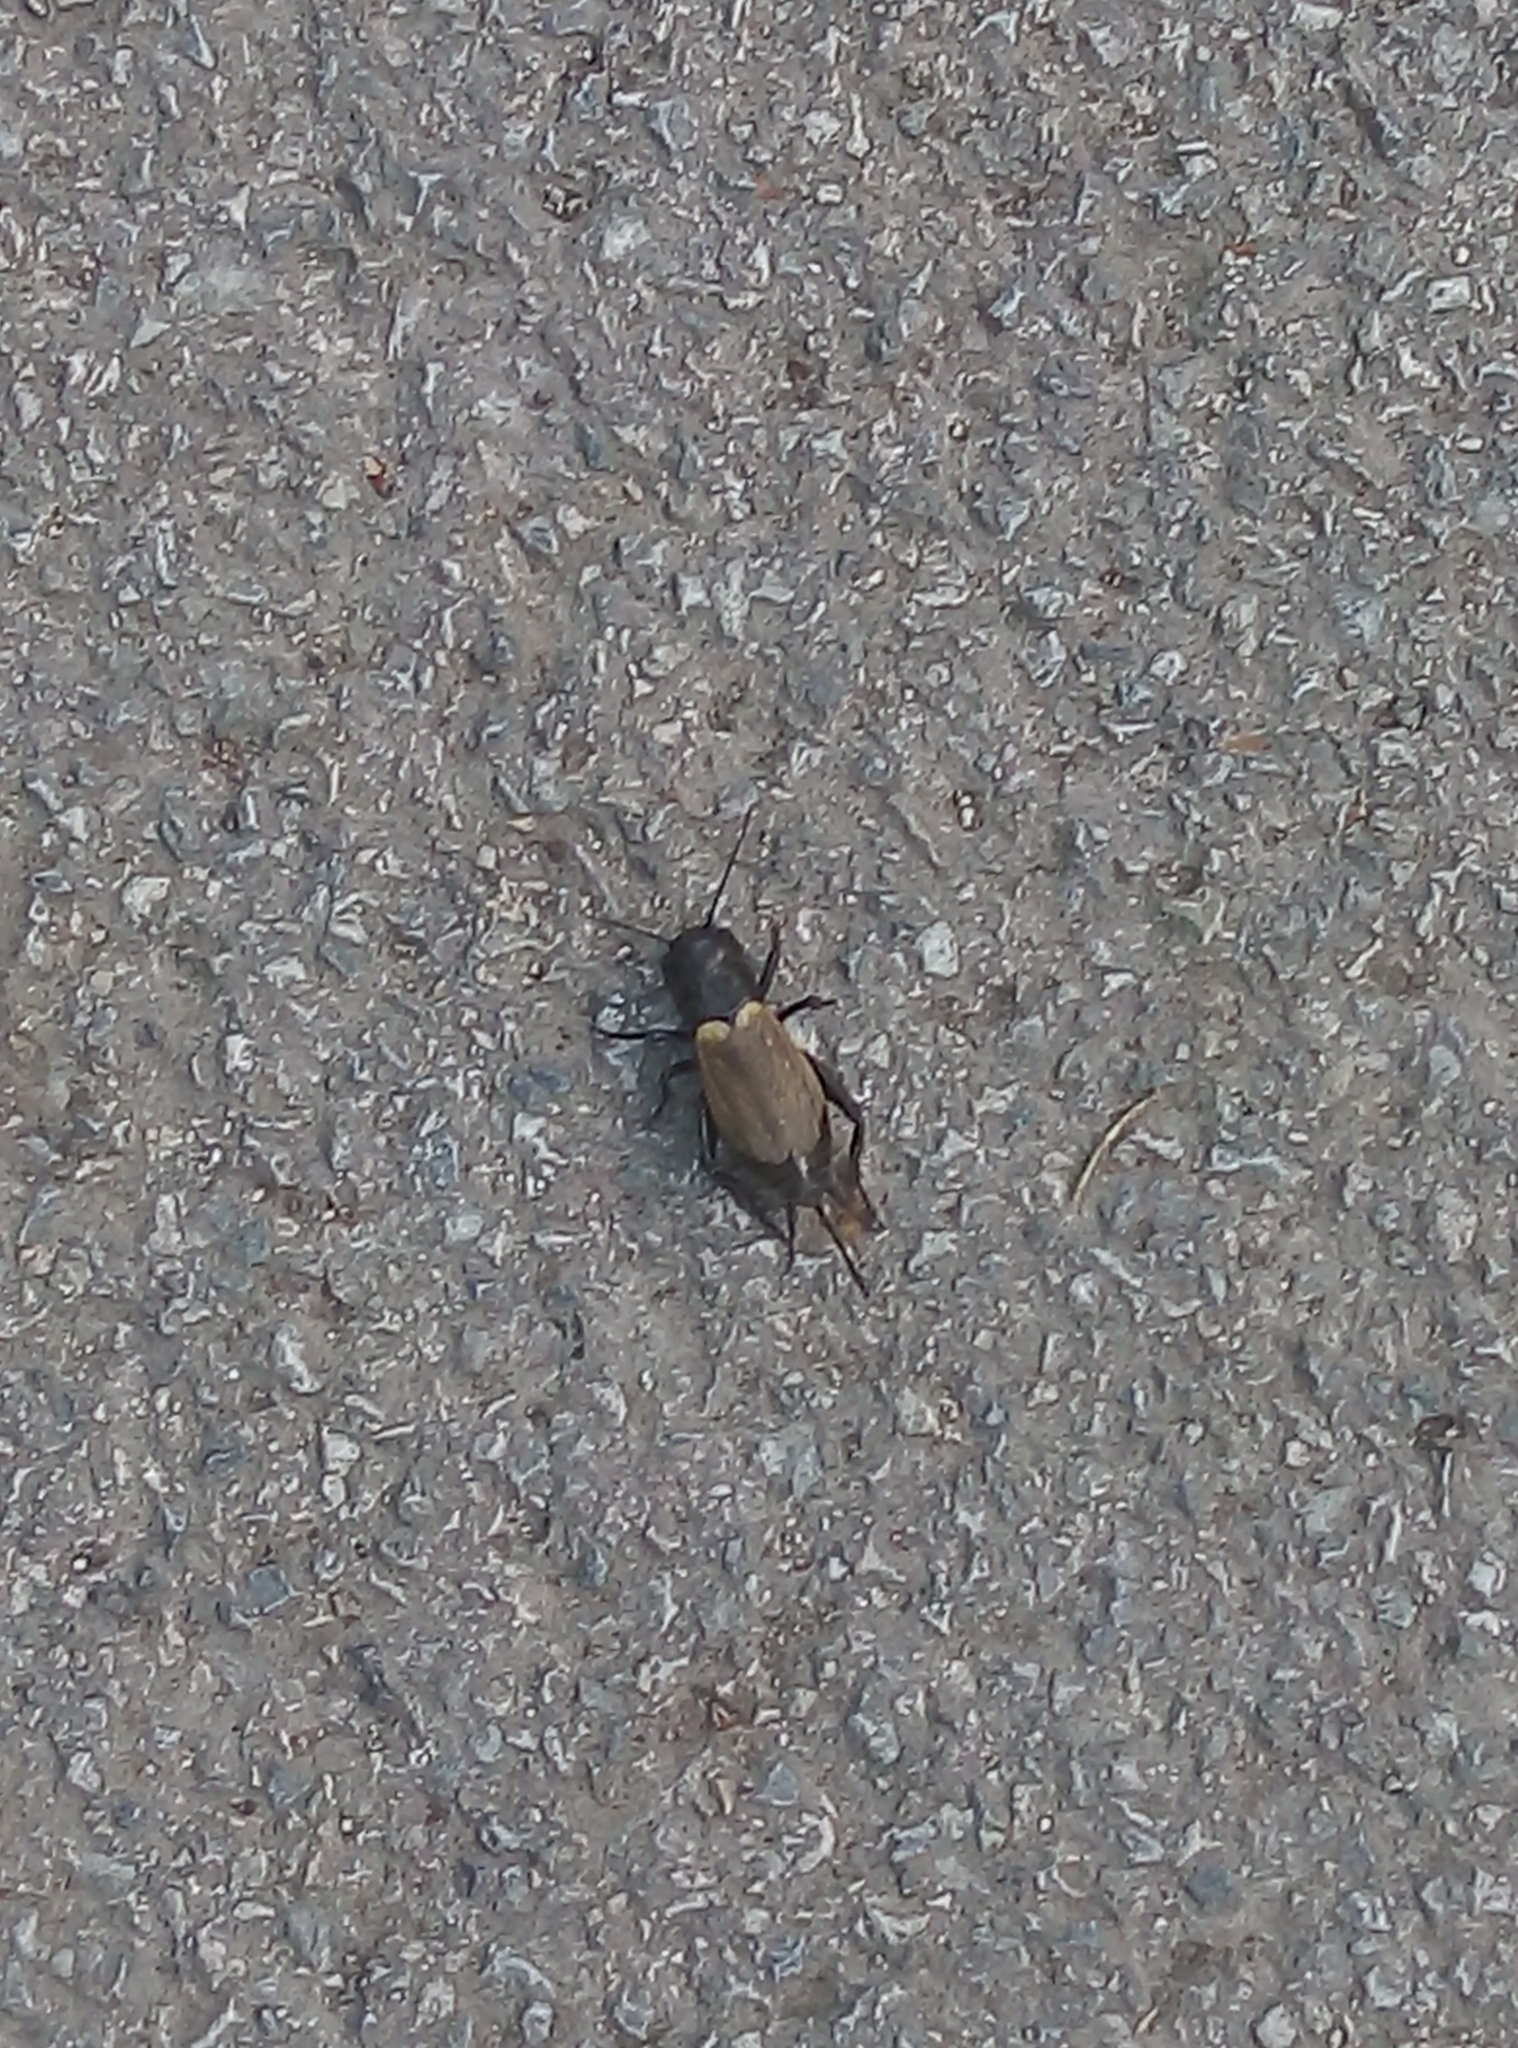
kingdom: Animalia
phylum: Arthropoda
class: Insecta
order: Orthoptera
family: Gryllidae
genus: Gryllus
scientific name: Gryllus campestris
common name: Field cricket
